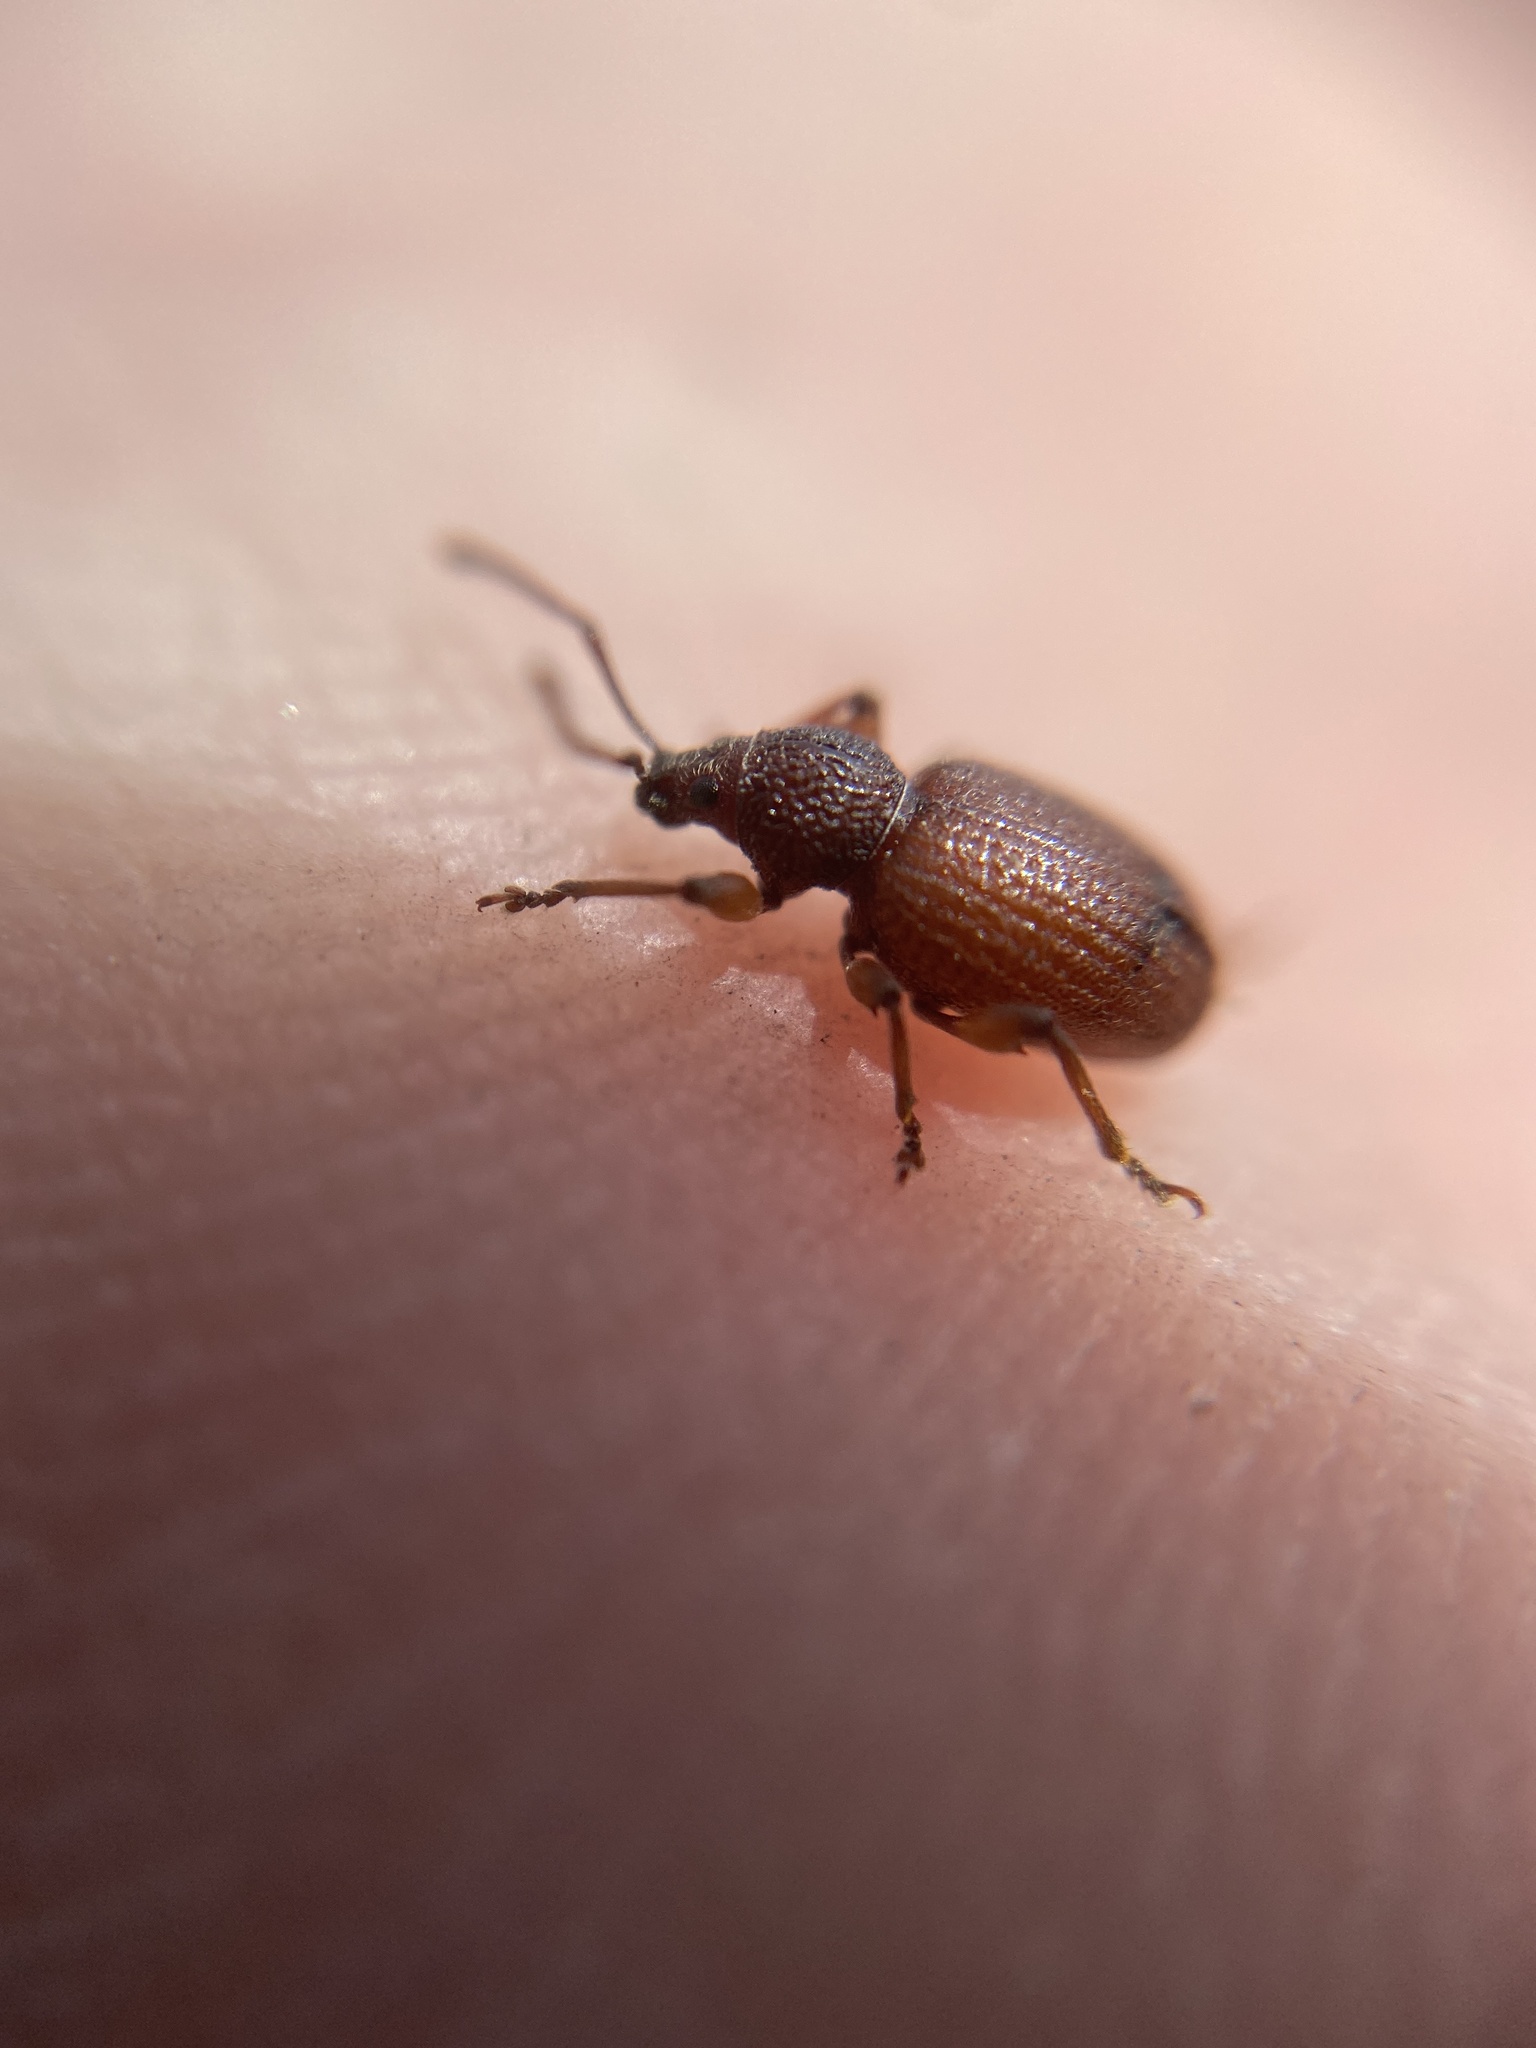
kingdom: Animalia
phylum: Arthropoda
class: Insecta
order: Coleoptera
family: Curculionidae
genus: Otiorhynchus
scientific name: Otiorhynchus ovatus
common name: Strawberry root weevil
